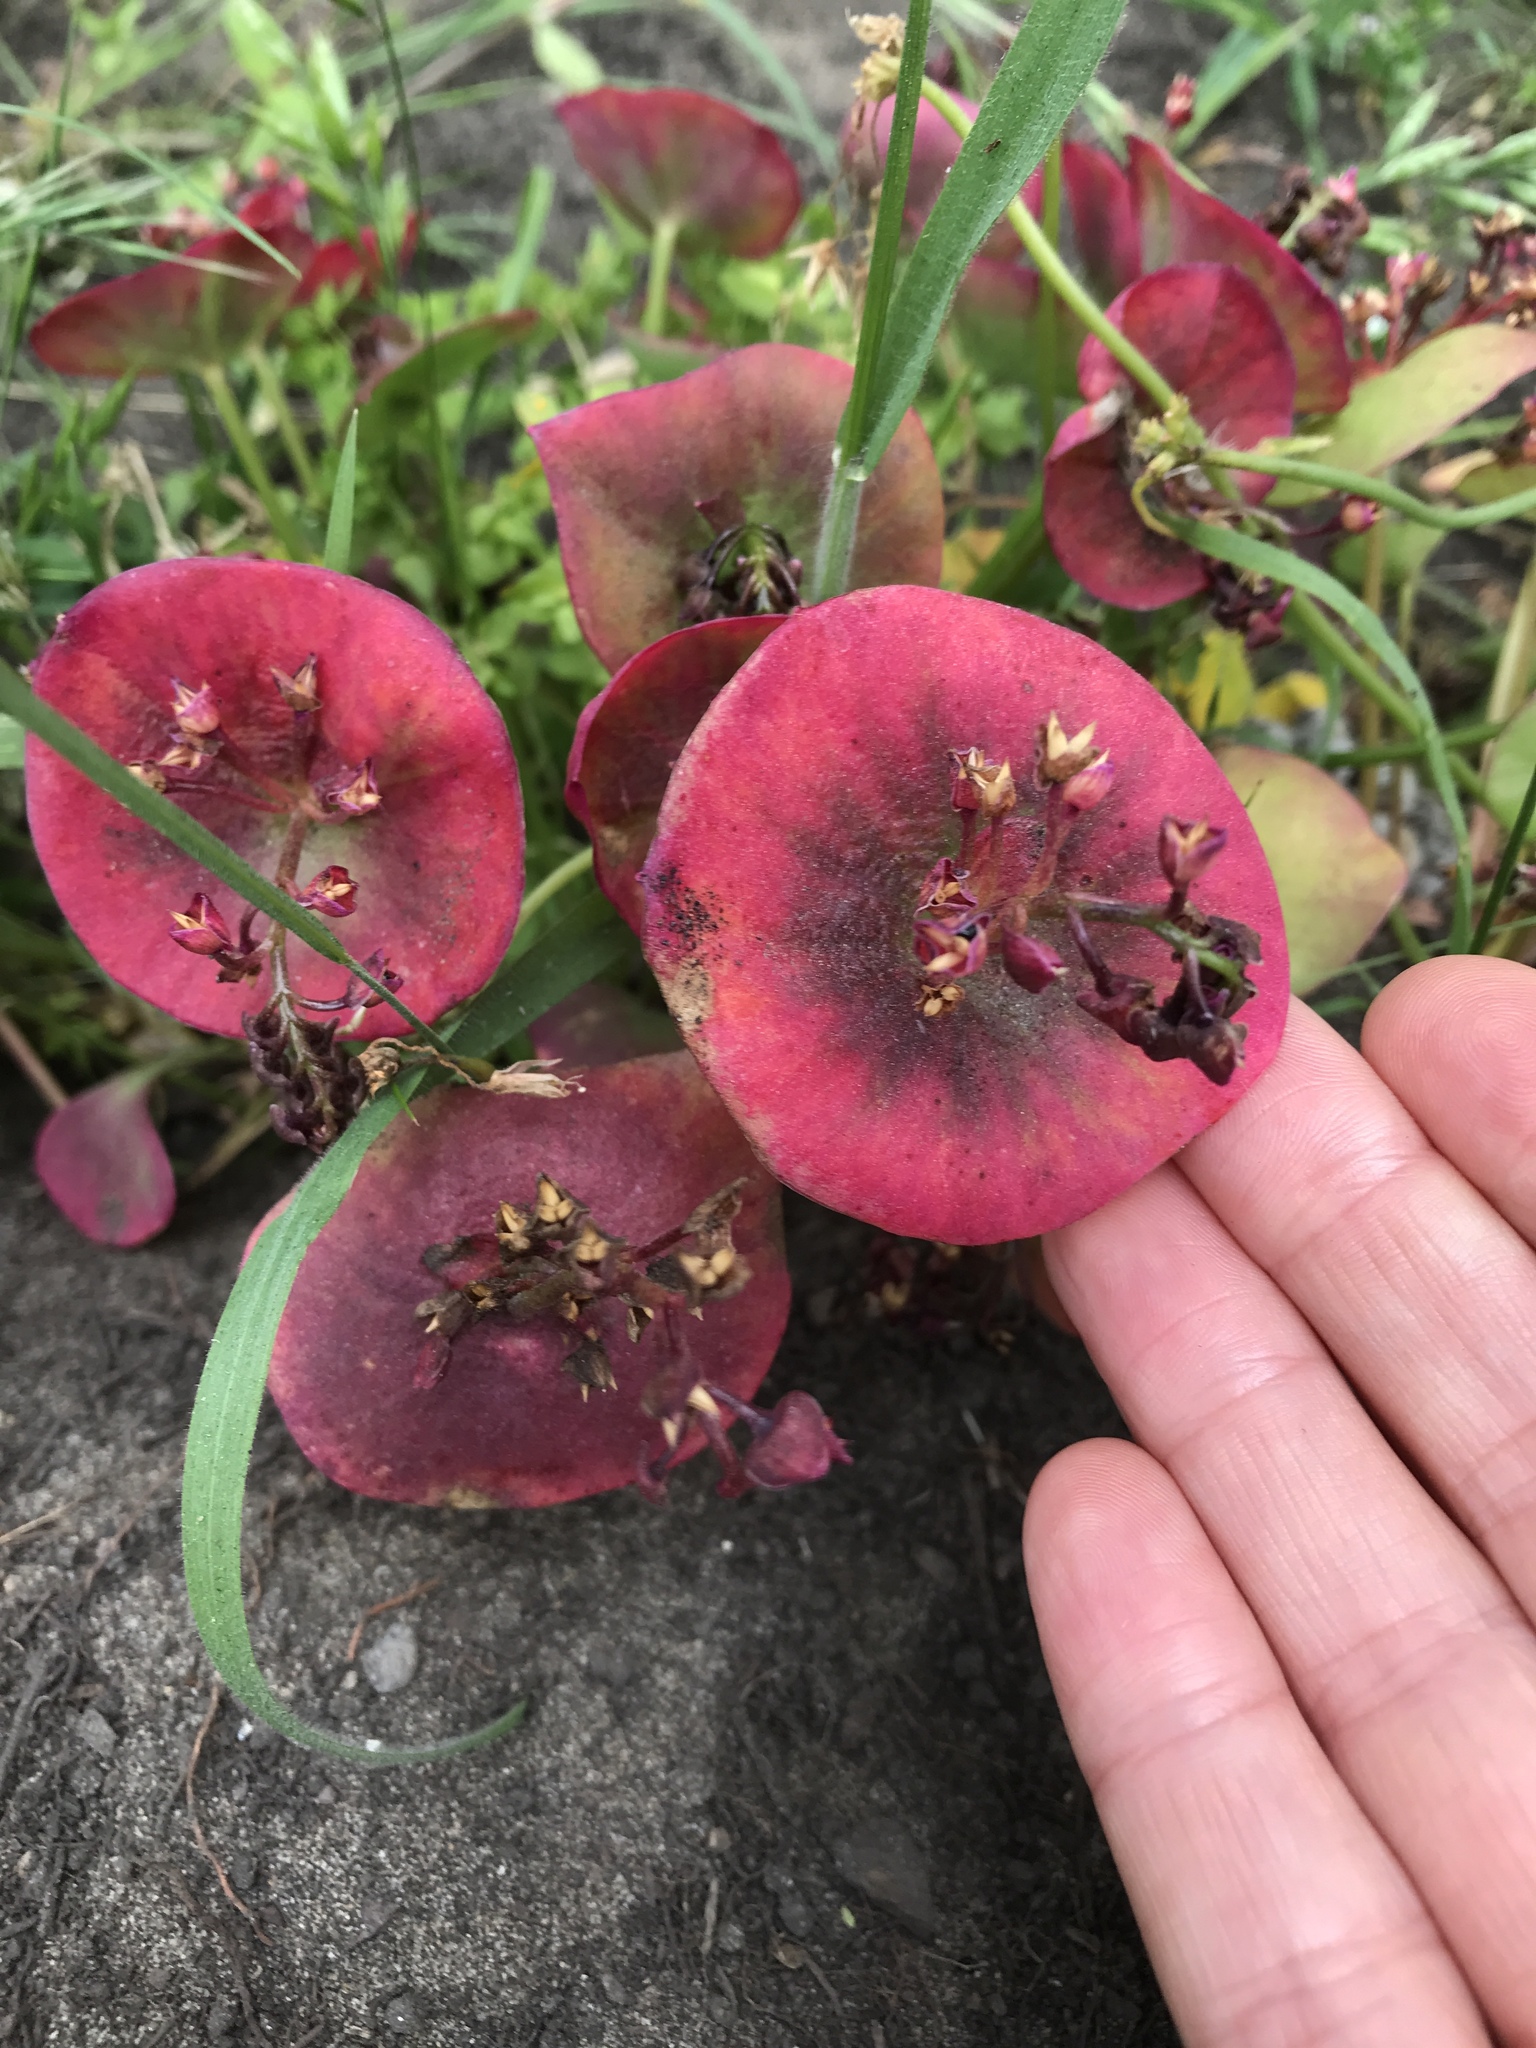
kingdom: Plantae
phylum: Tracheophyta
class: Magnoliopsida
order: Caryophyllales
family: Montiaceae
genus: Claytonia
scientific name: Claytonia perfoliata
